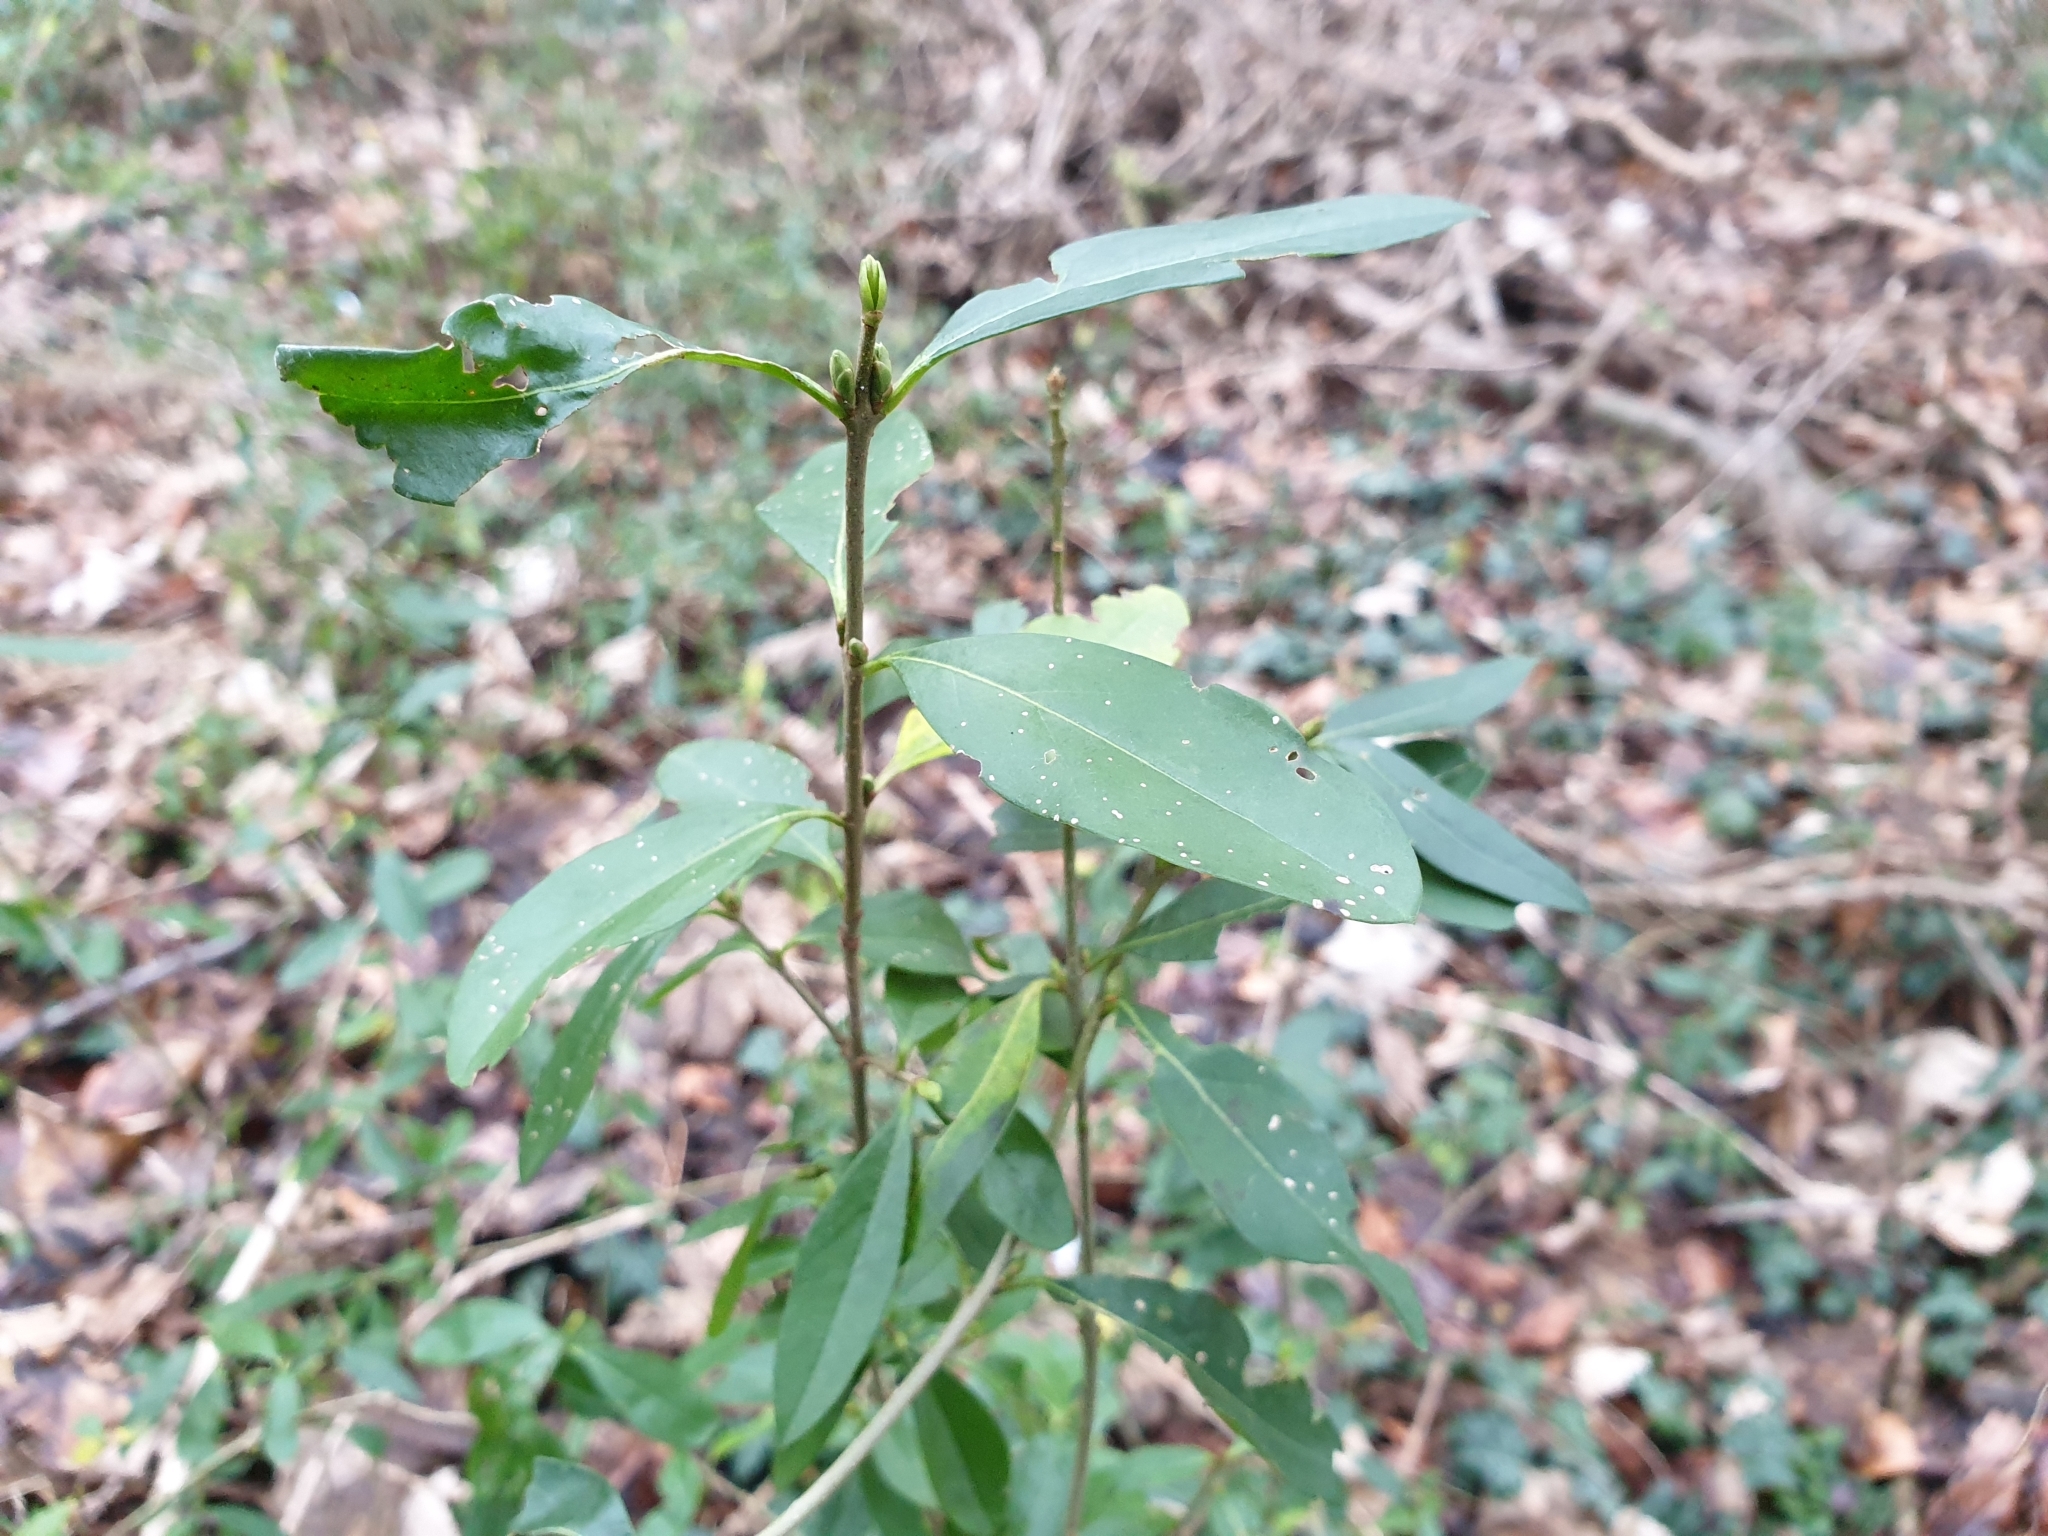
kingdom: Plantae
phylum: Tracheophyta
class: Magnoliopsida
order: Lamiales
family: Oleaceae
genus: Ligustrum
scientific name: Ligustrum vulgare
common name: Wild privet
